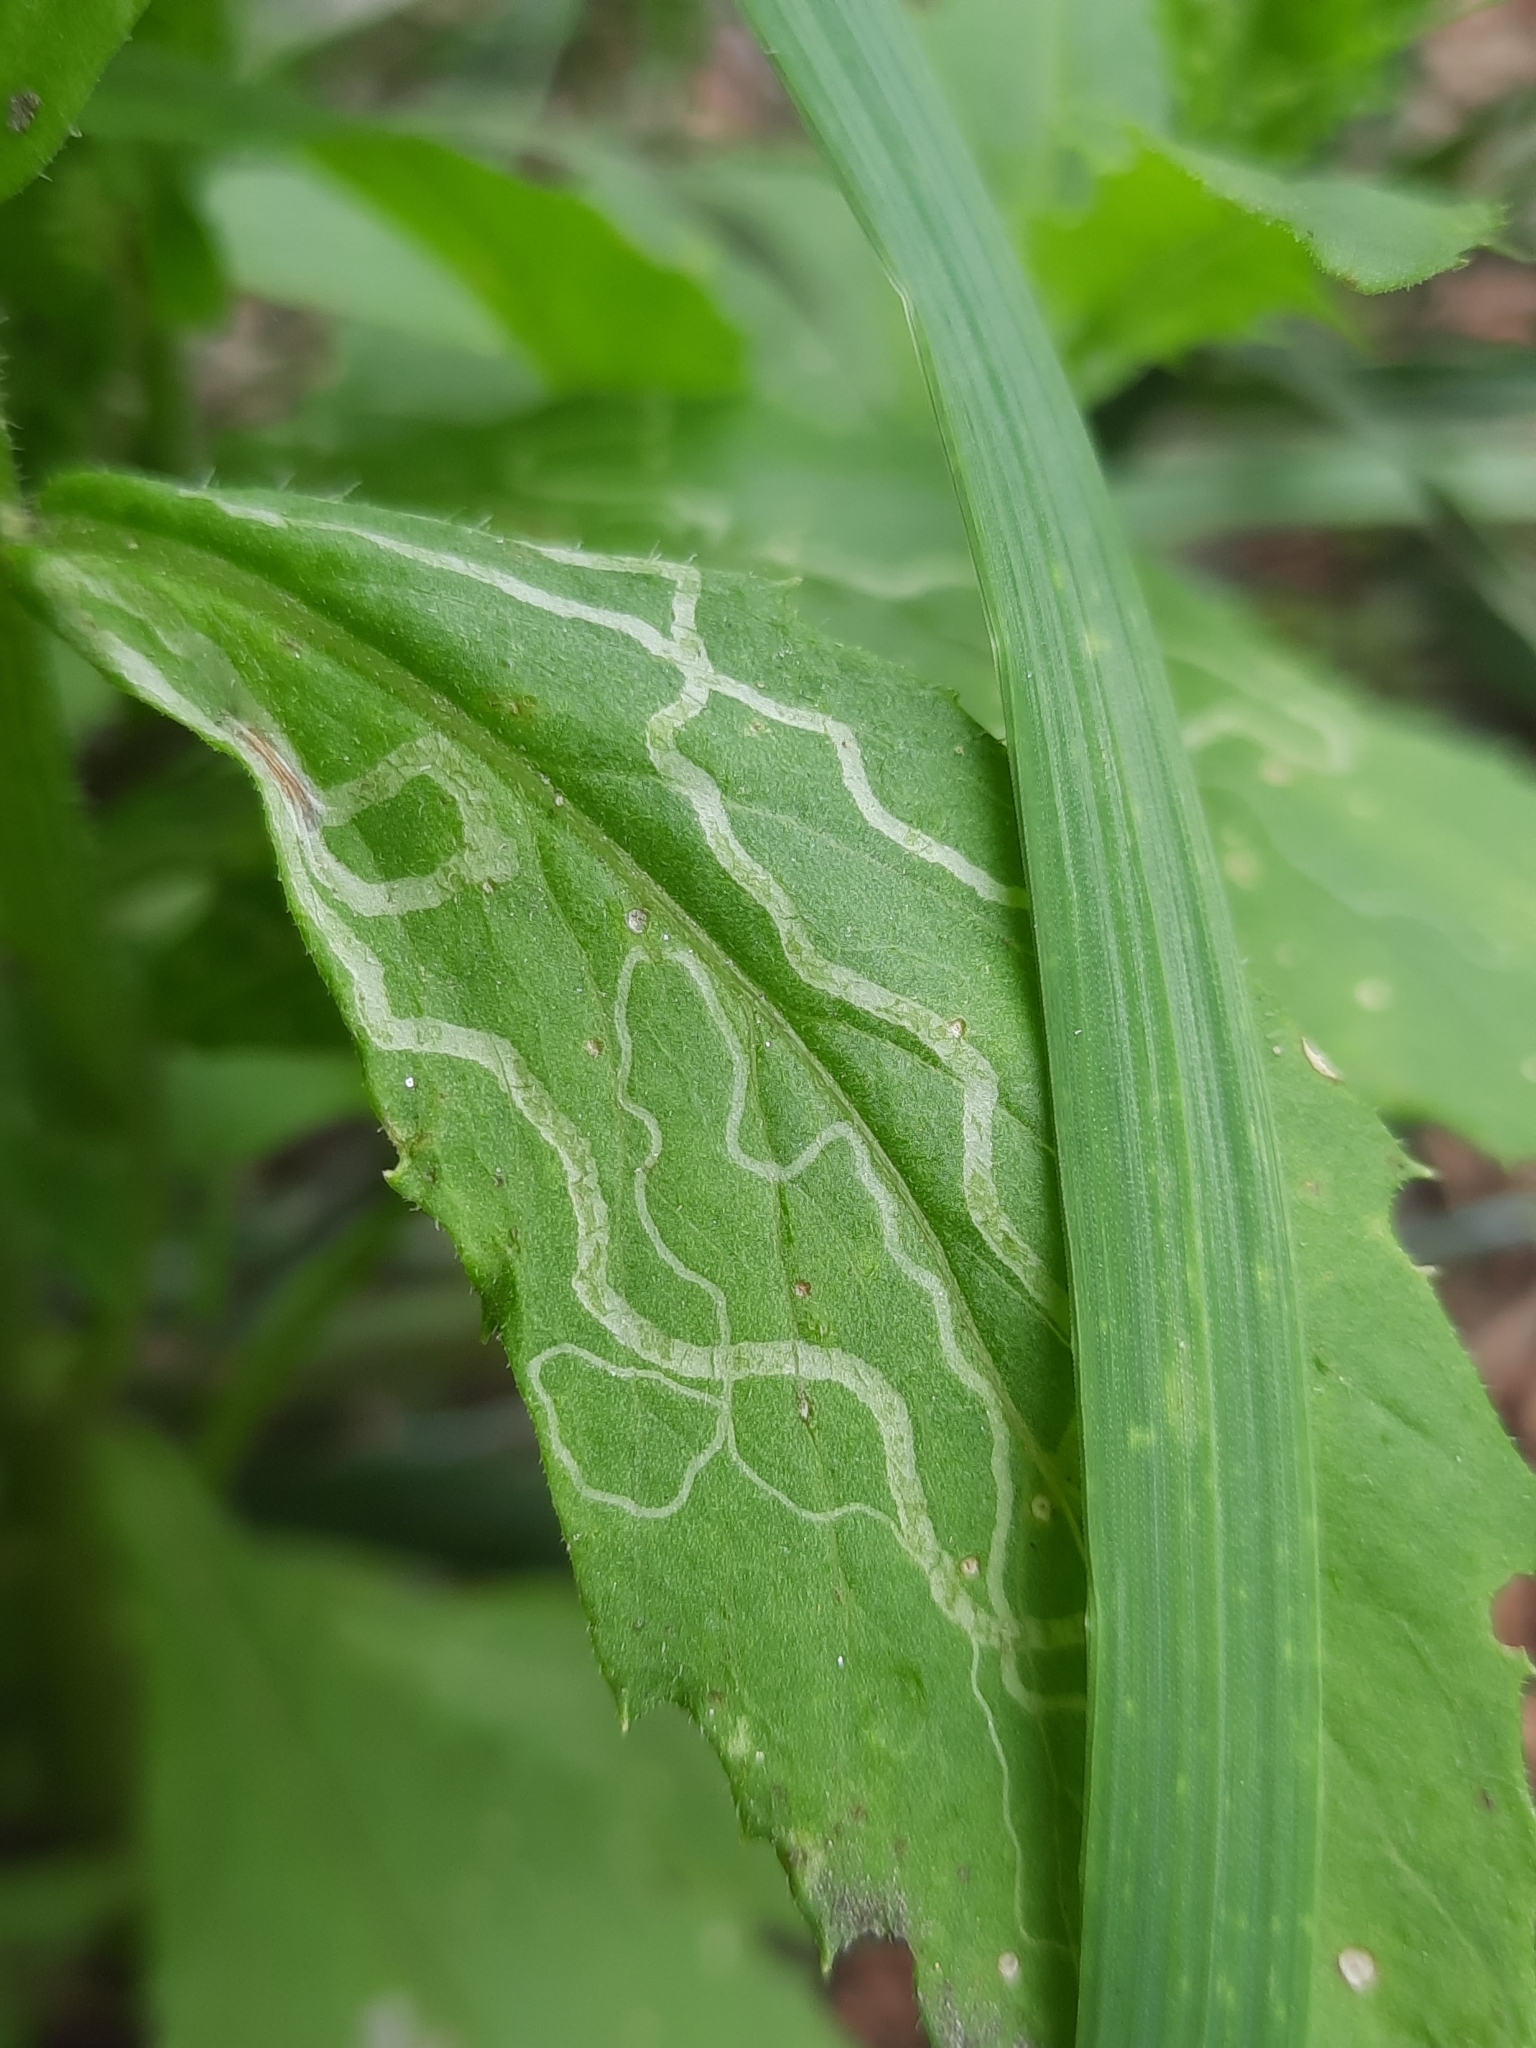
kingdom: Animalia
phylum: Arthropoda
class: Insecta
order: Lepidoptera
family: Gracillariidae
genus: Phyllocnistis
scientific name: Phyllocnistis insignis
